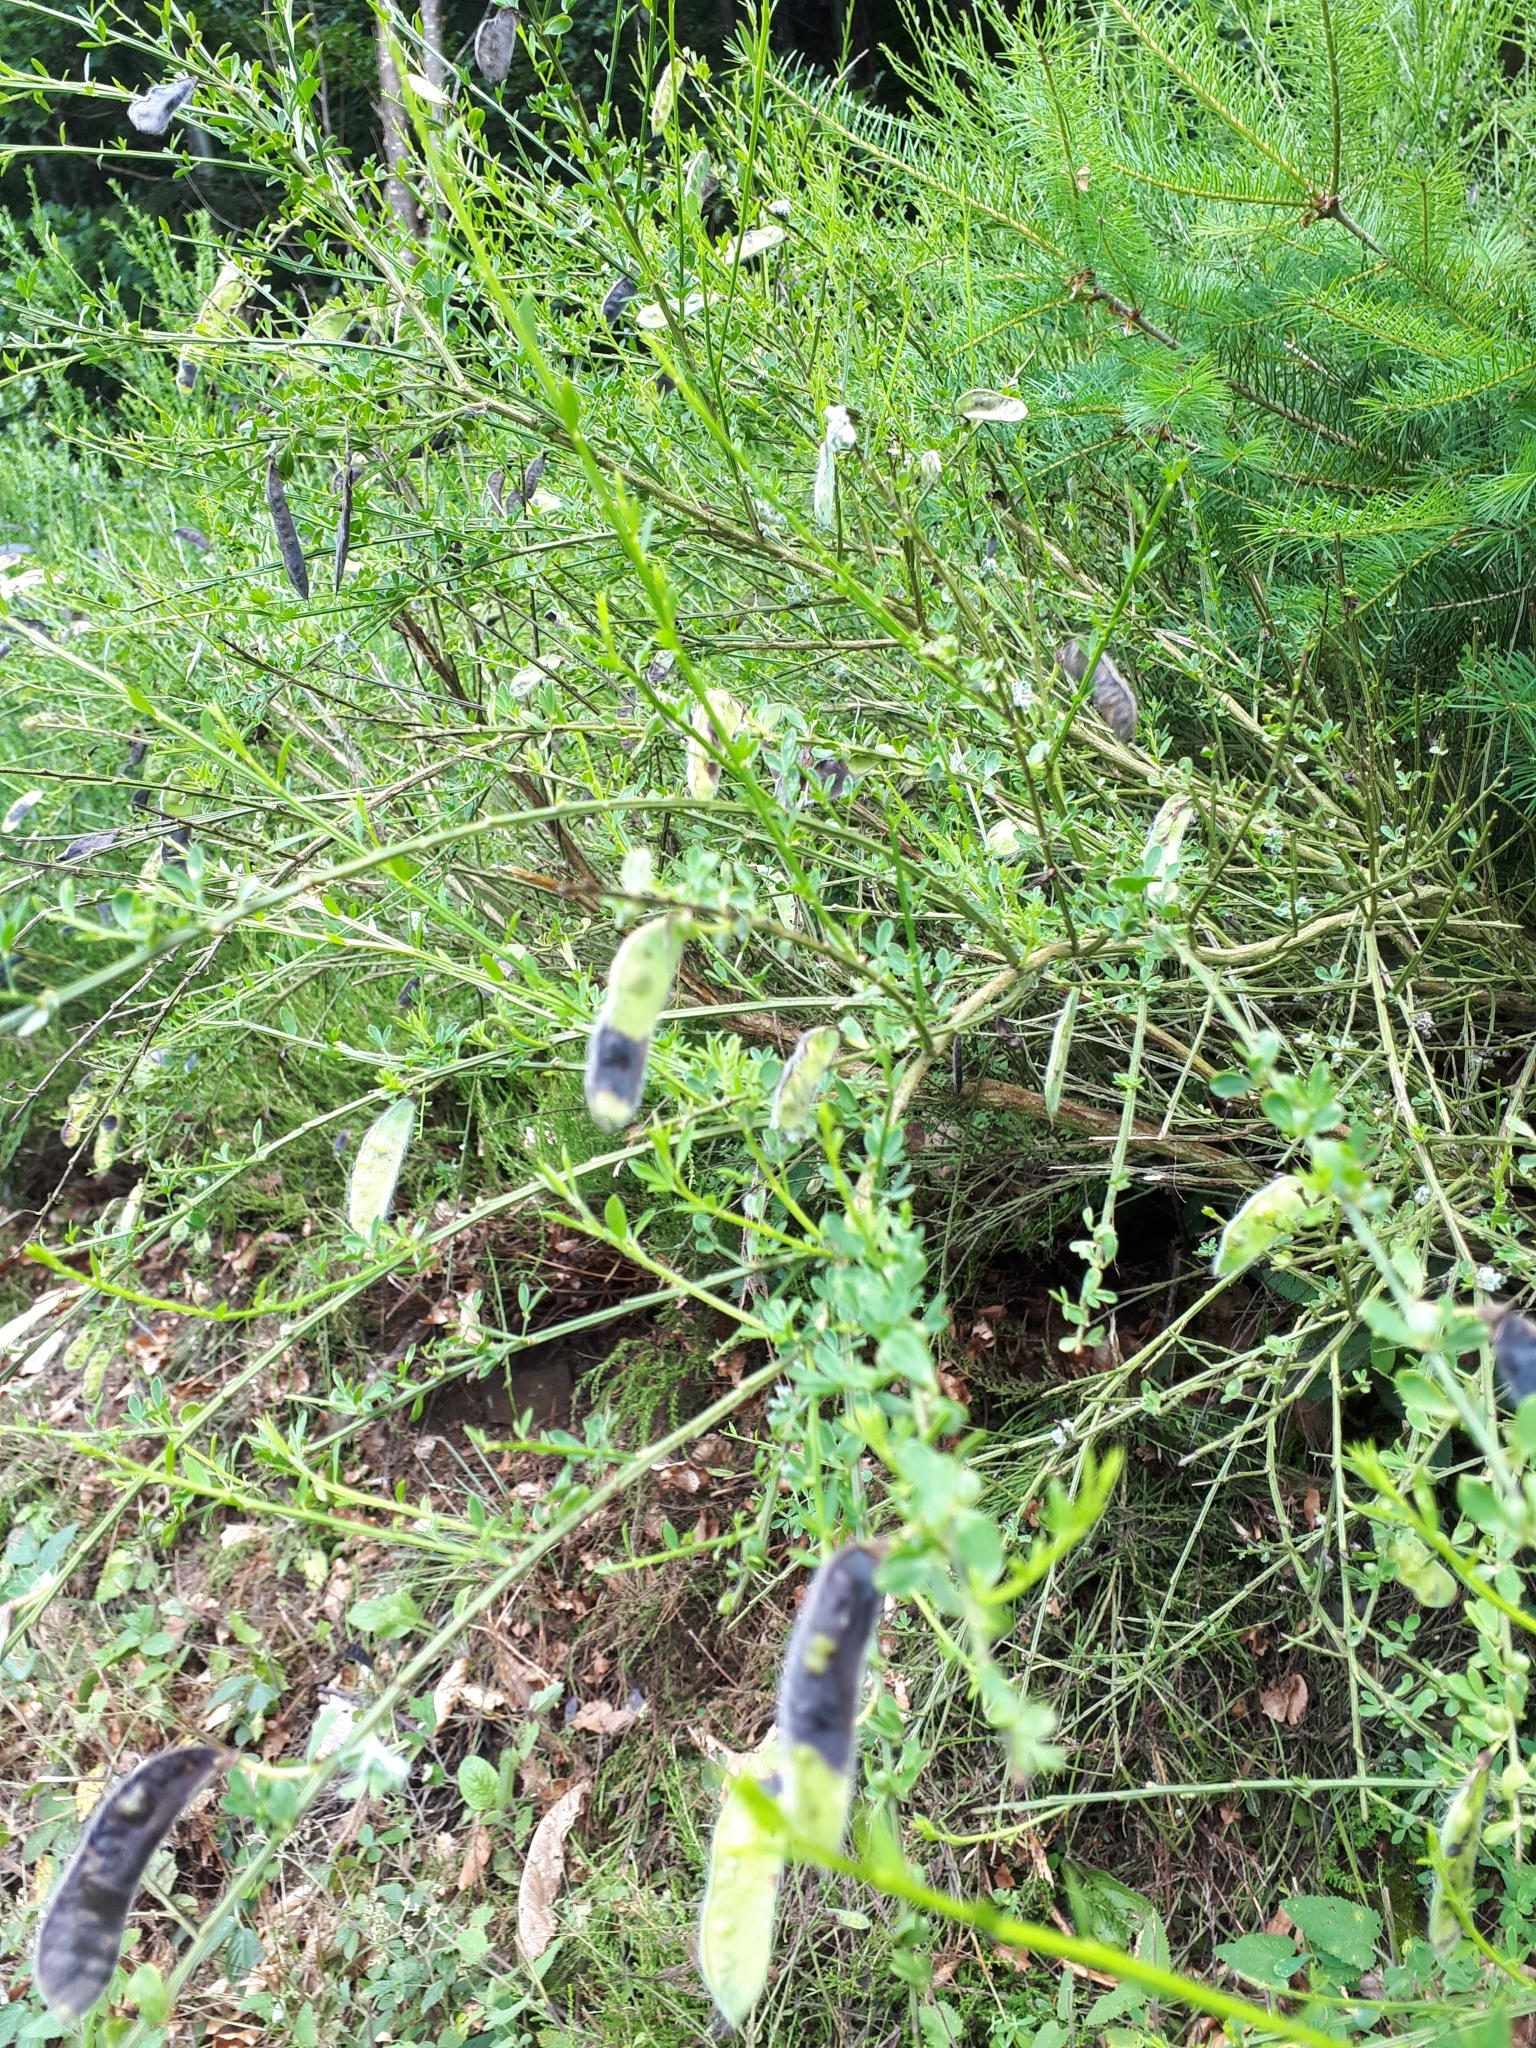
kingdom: Plantae
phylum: Tracheophyta
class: Magnoliopsida
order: Fabales
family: Fabaceae
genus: Cytisus
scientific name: Cytisus scoparius
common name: Scotch broom
